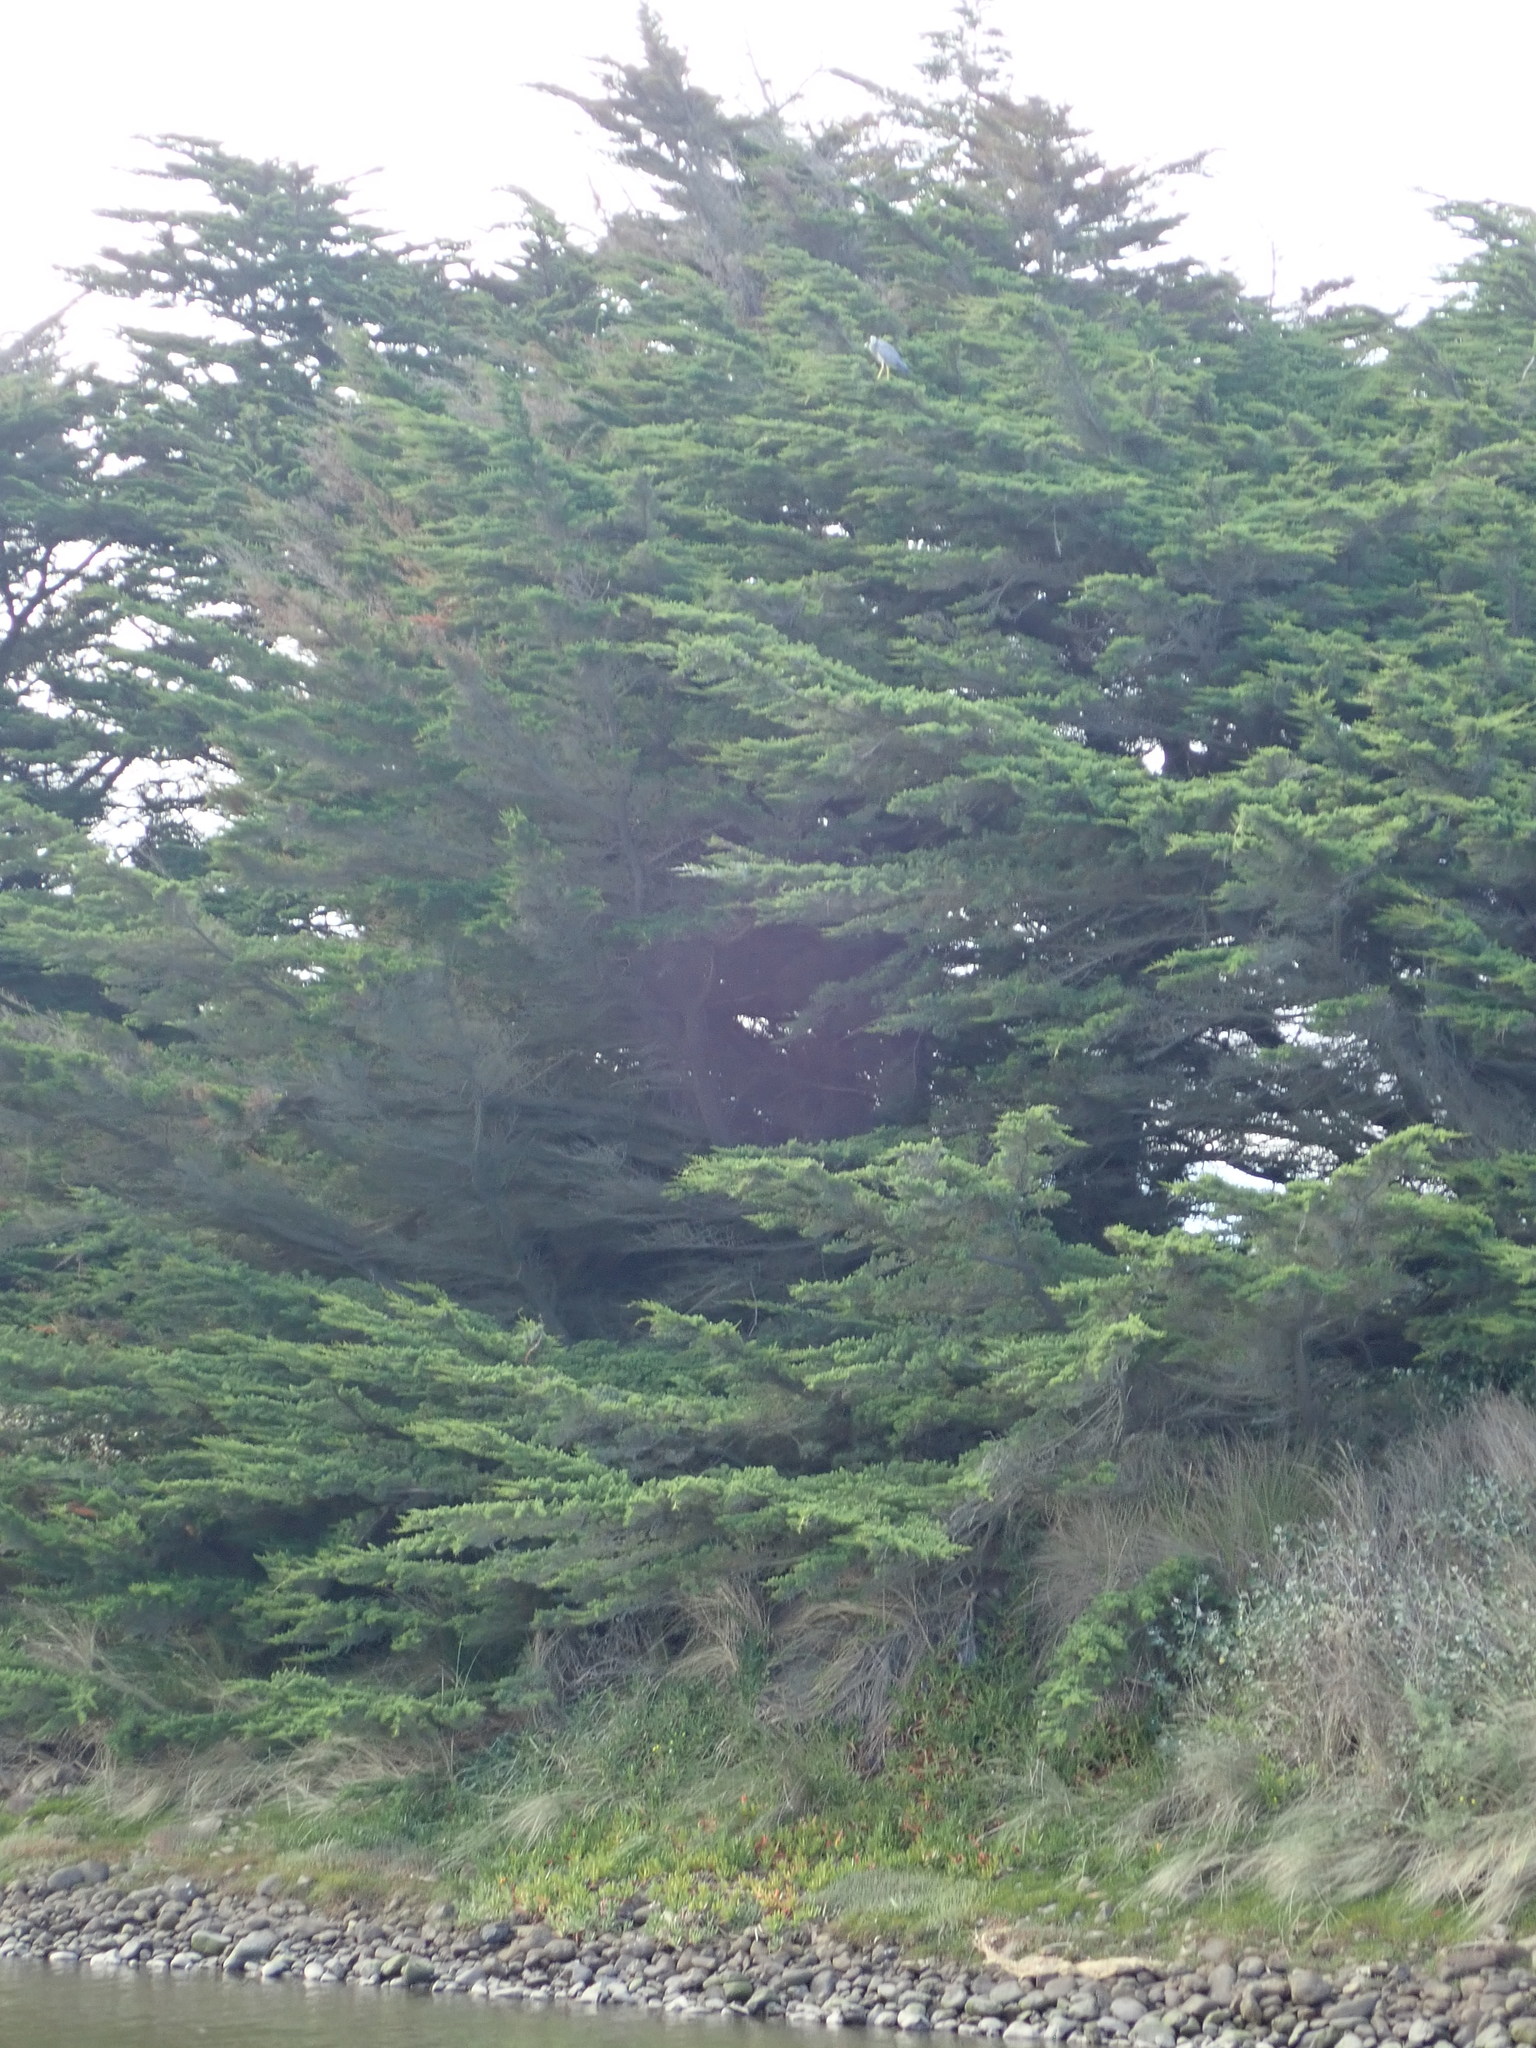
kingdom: Animalia
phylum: Chordata
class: Aves
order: Pelecaniformes
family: Ardeidae
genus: Egretta
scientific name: Egretta novaehollandiae
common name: White-faced heron
